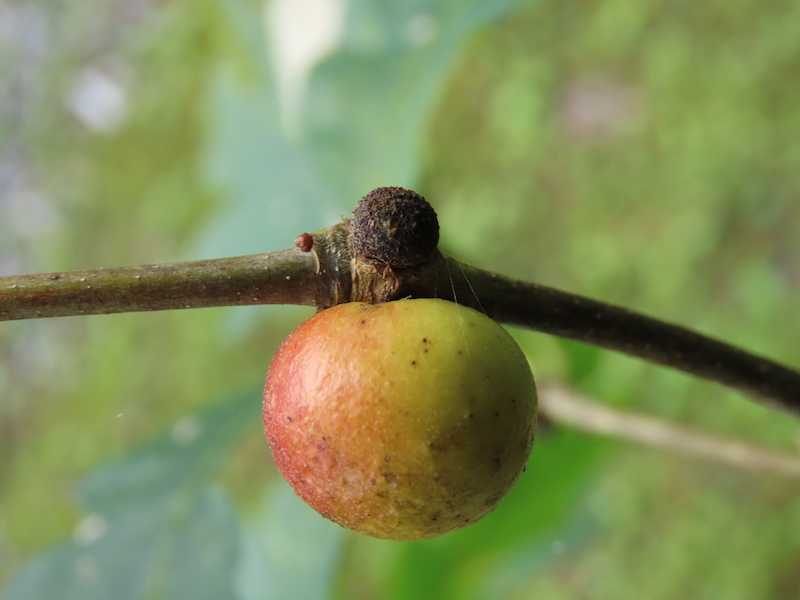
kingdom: Animalia
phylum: Arthropoda
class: Insecta
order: Hymenoptera
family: Cynipidae
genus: Disholcaspis
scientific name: Disholcaspis quercusglobulus
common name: Round bullet gall wasp
